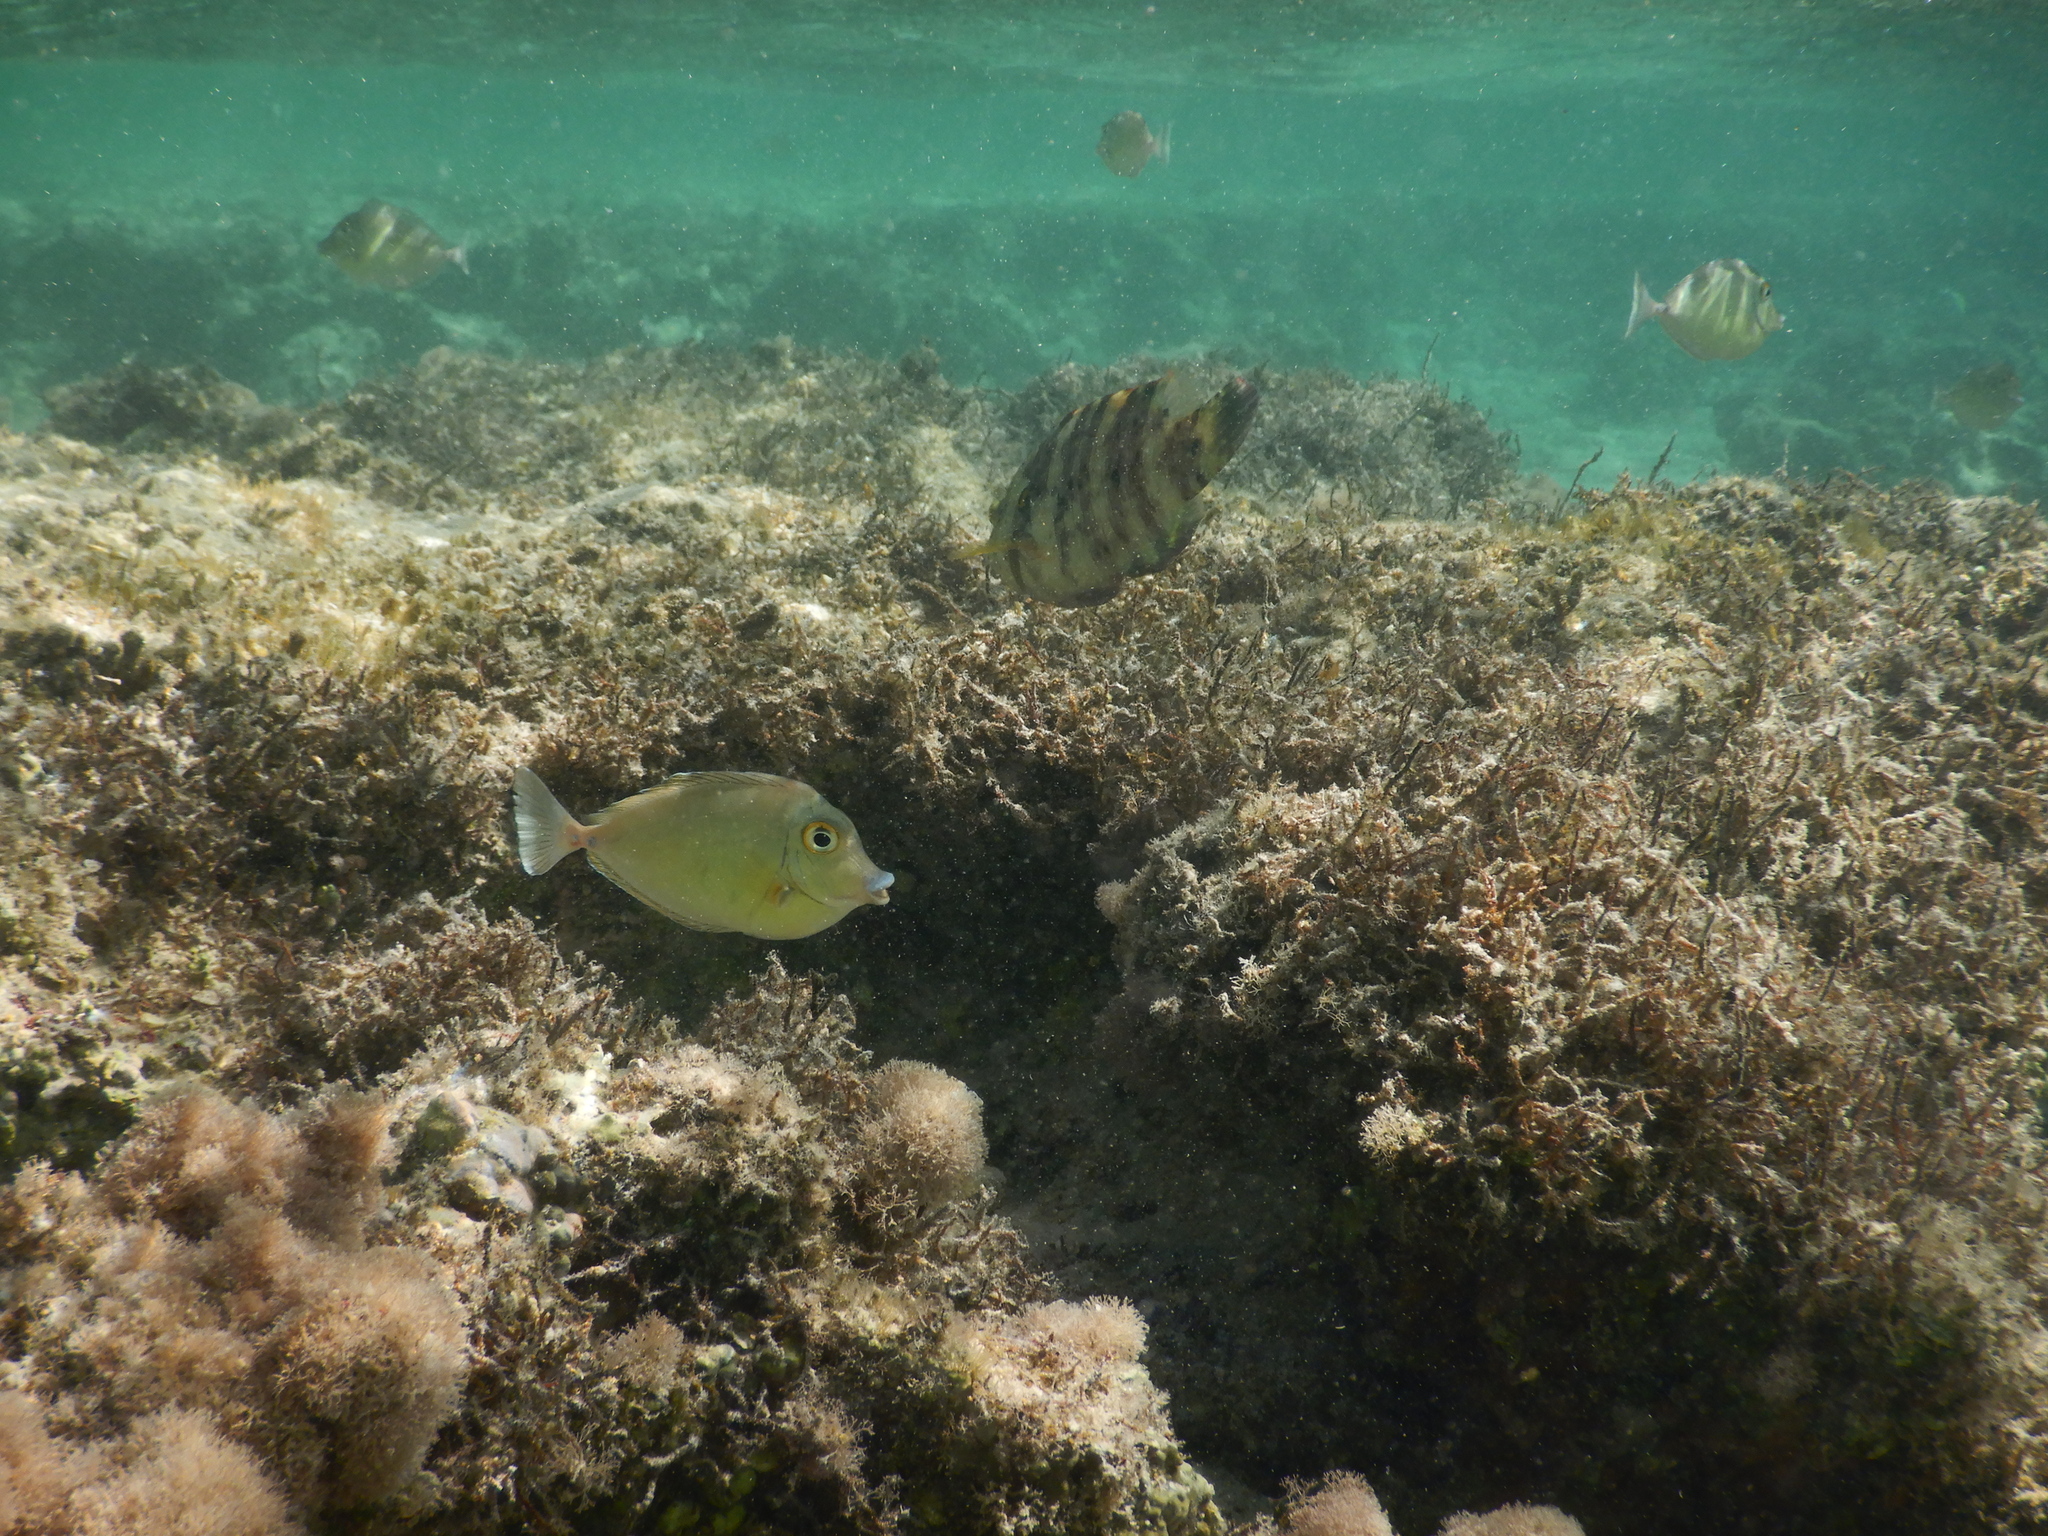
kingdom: Animalia
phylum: Chordata
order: Perciformes
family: Acanthuridae
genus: Naso
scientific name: Naso unicornis
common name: Bluespine unicornfish
